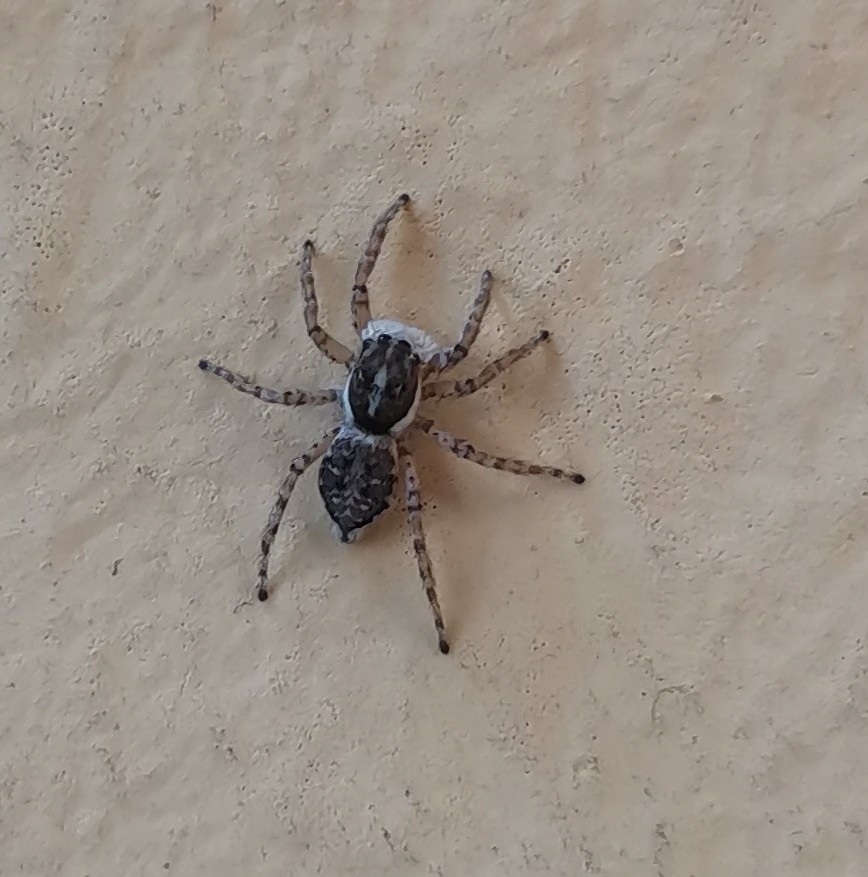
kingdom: Animalia
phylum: Arthropoda
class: Arachnida
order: Araneae
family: Salticidae
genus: Menemerus
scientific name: Menemerus semilimbatus
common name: Jumping spider
